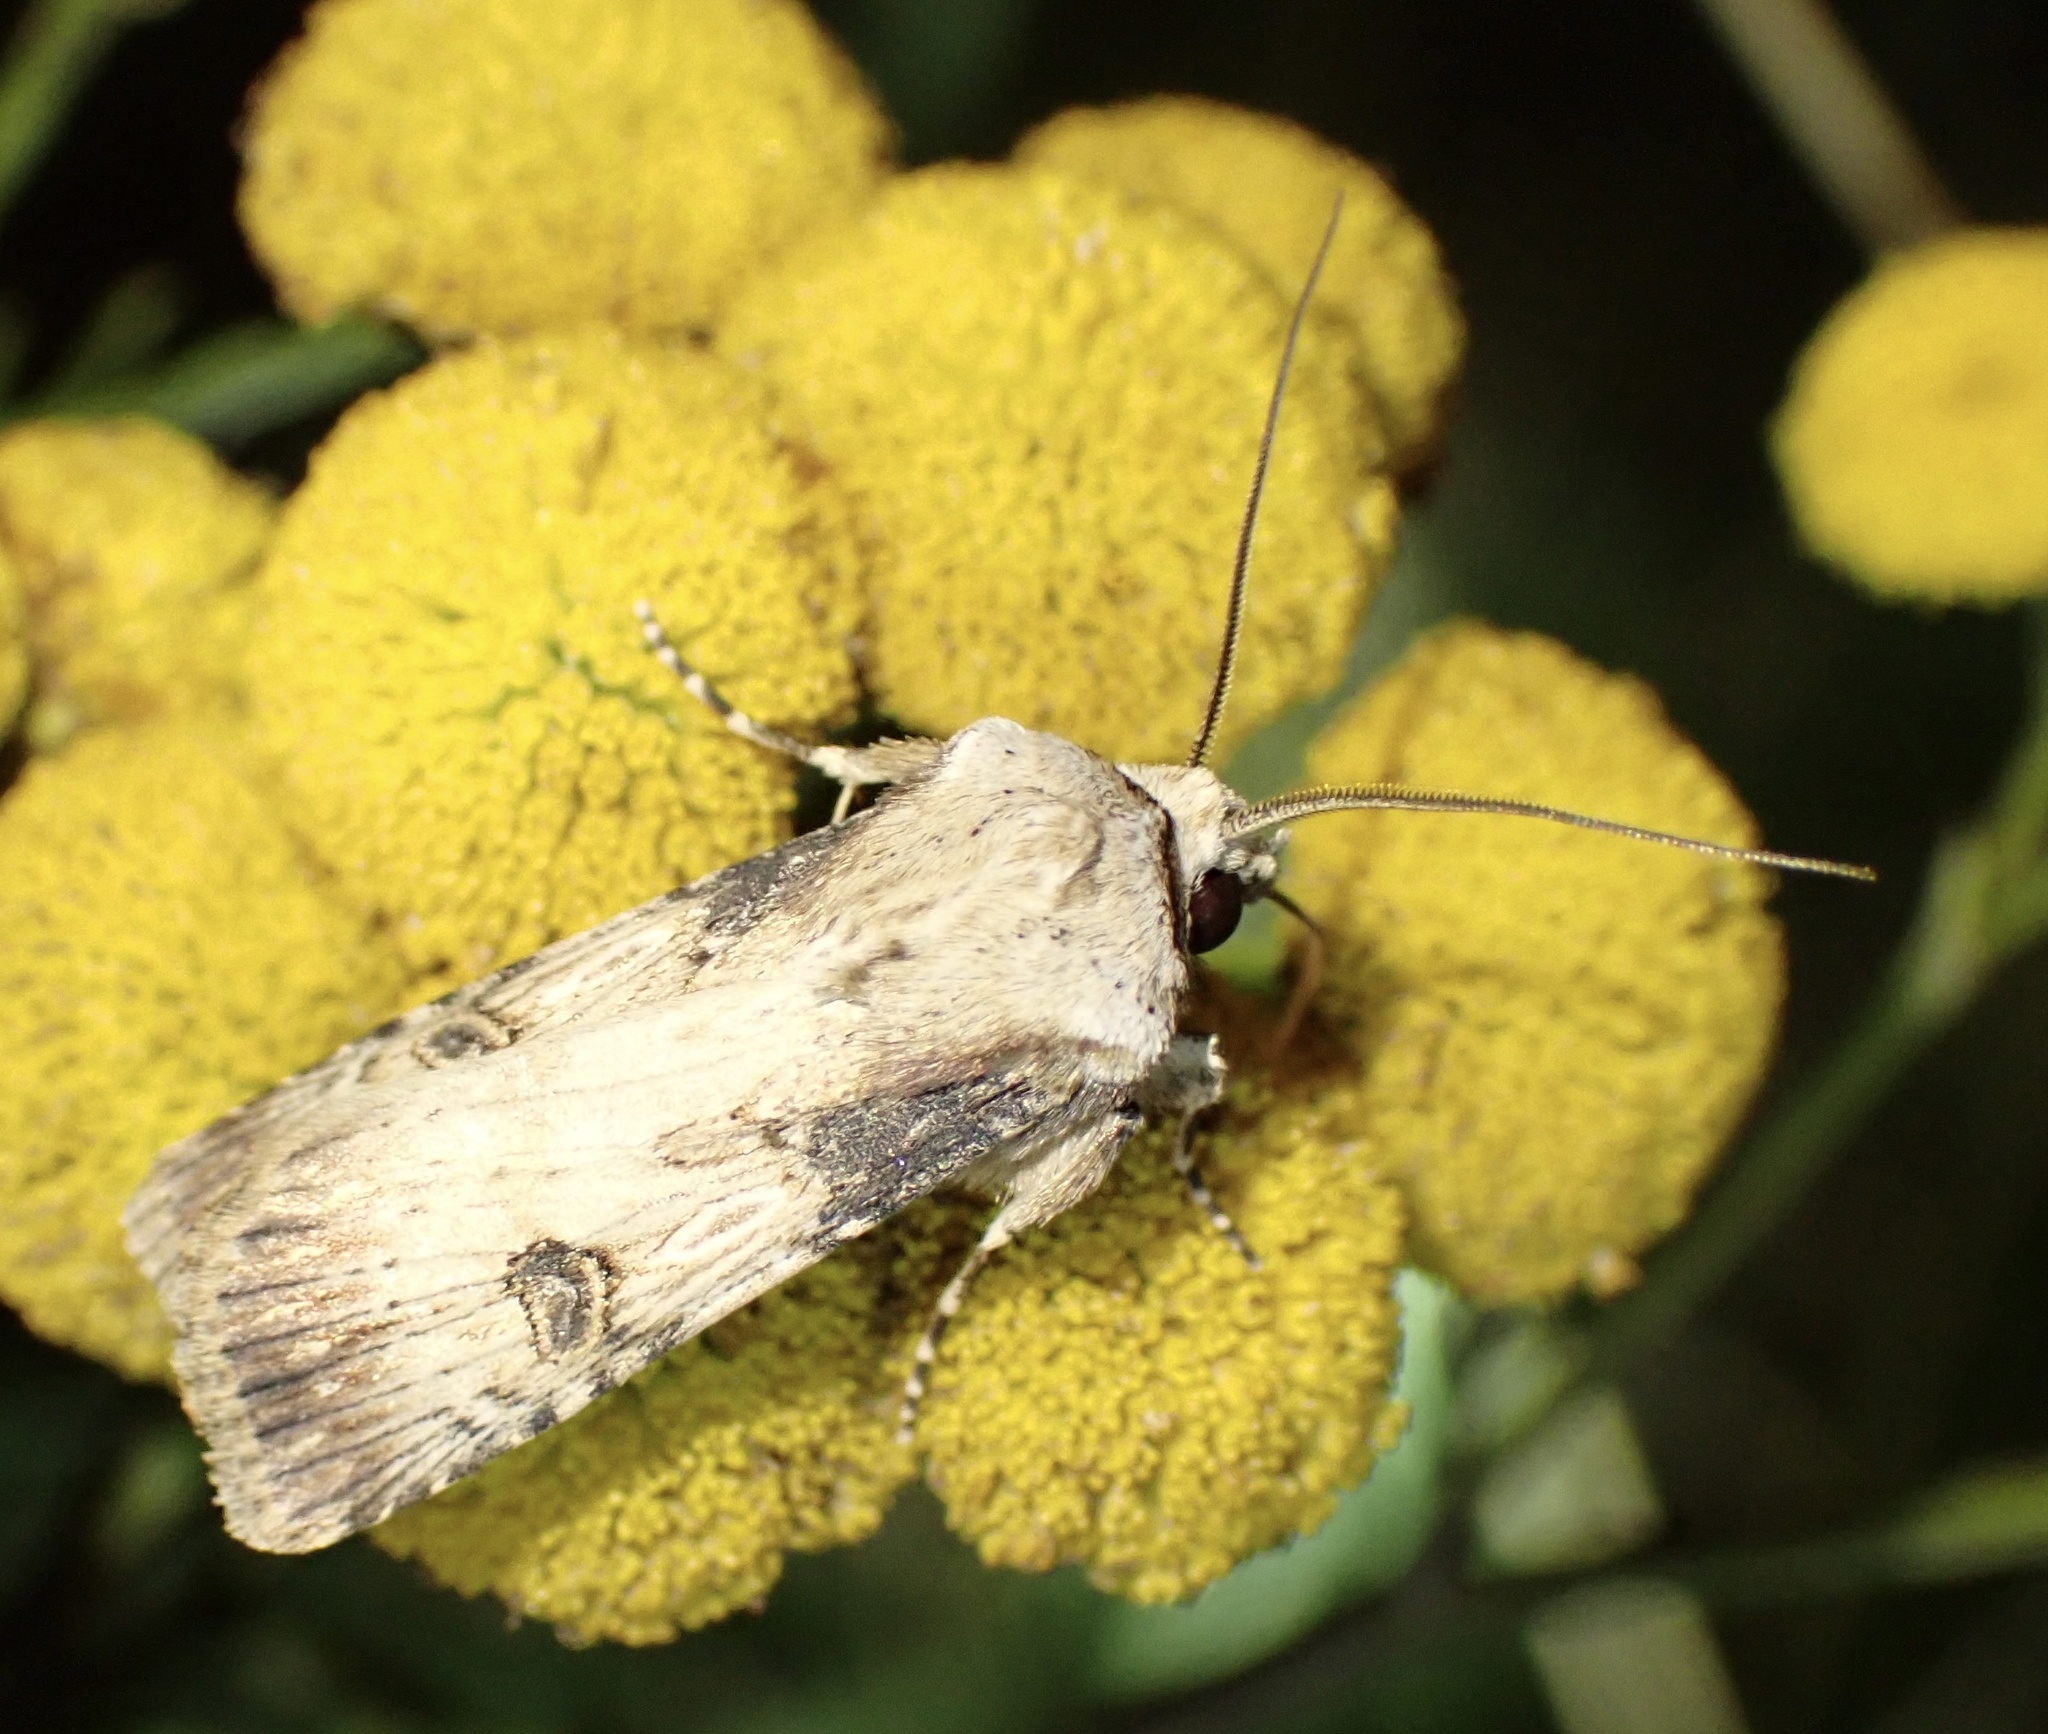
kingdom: Animalia
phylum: Arthropoda
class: Insecta
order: Lepidoptera
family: Noctuidae
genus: Agrotis
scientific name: Agrotis puta
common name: Shuttle-shaped dart
